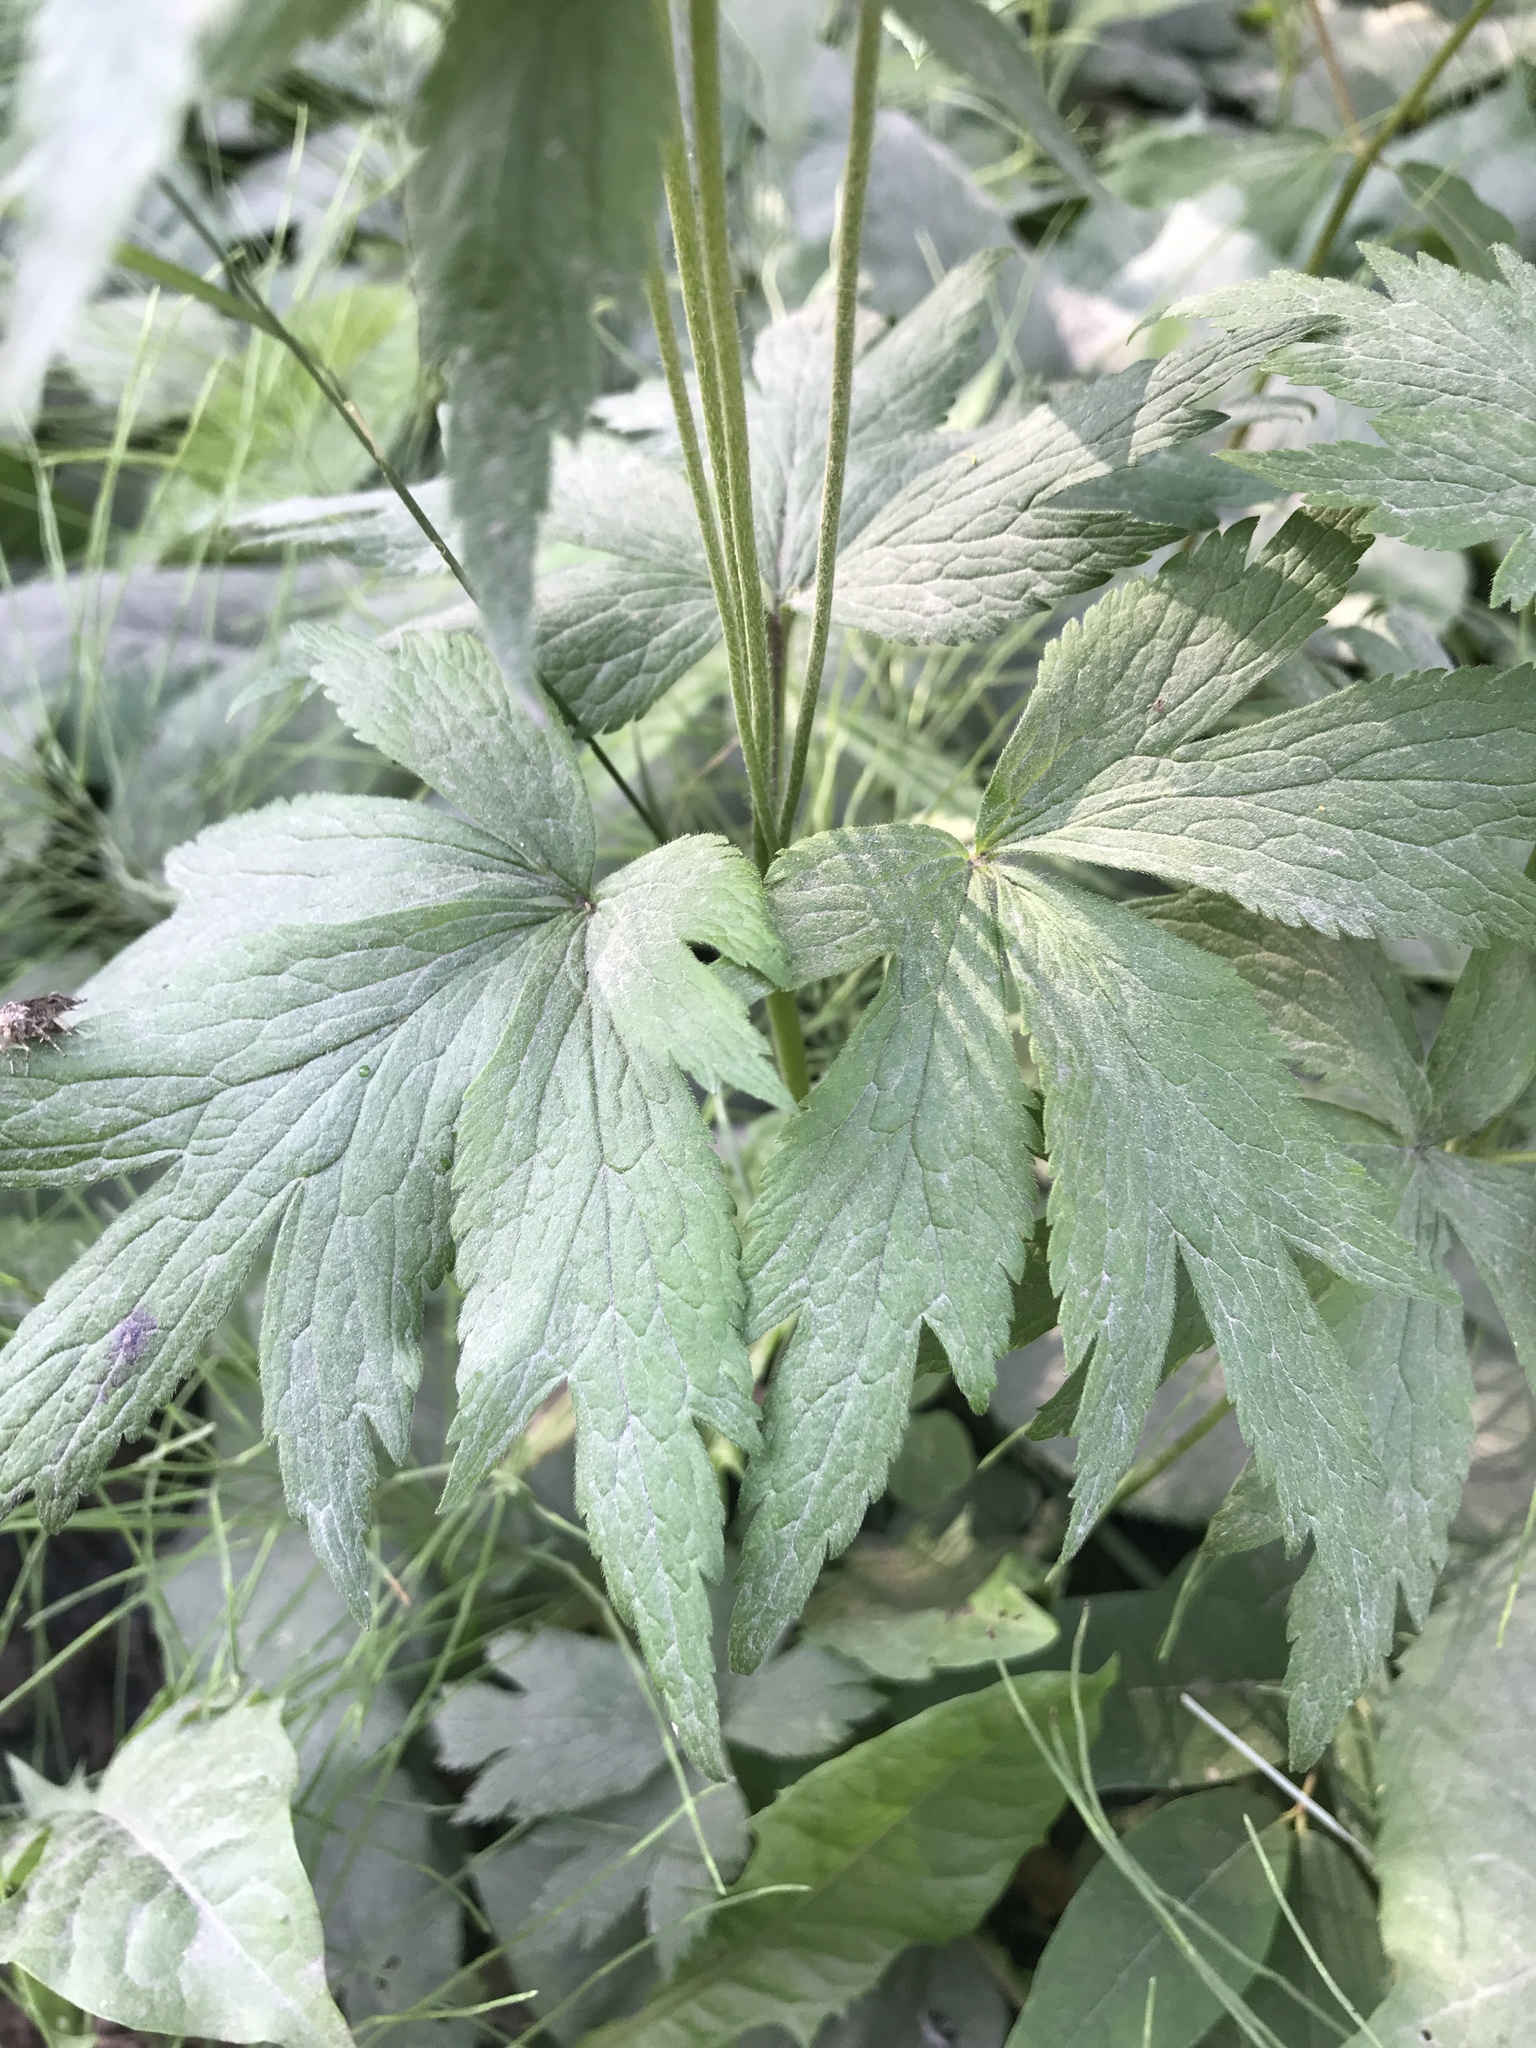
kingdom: Plantae
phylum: Tracheophyta
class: Magnoliopsida
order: Ranunculales
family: Ranunculaceae
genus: Anemone
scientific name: Anemone virginiana
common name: Tall anemone
